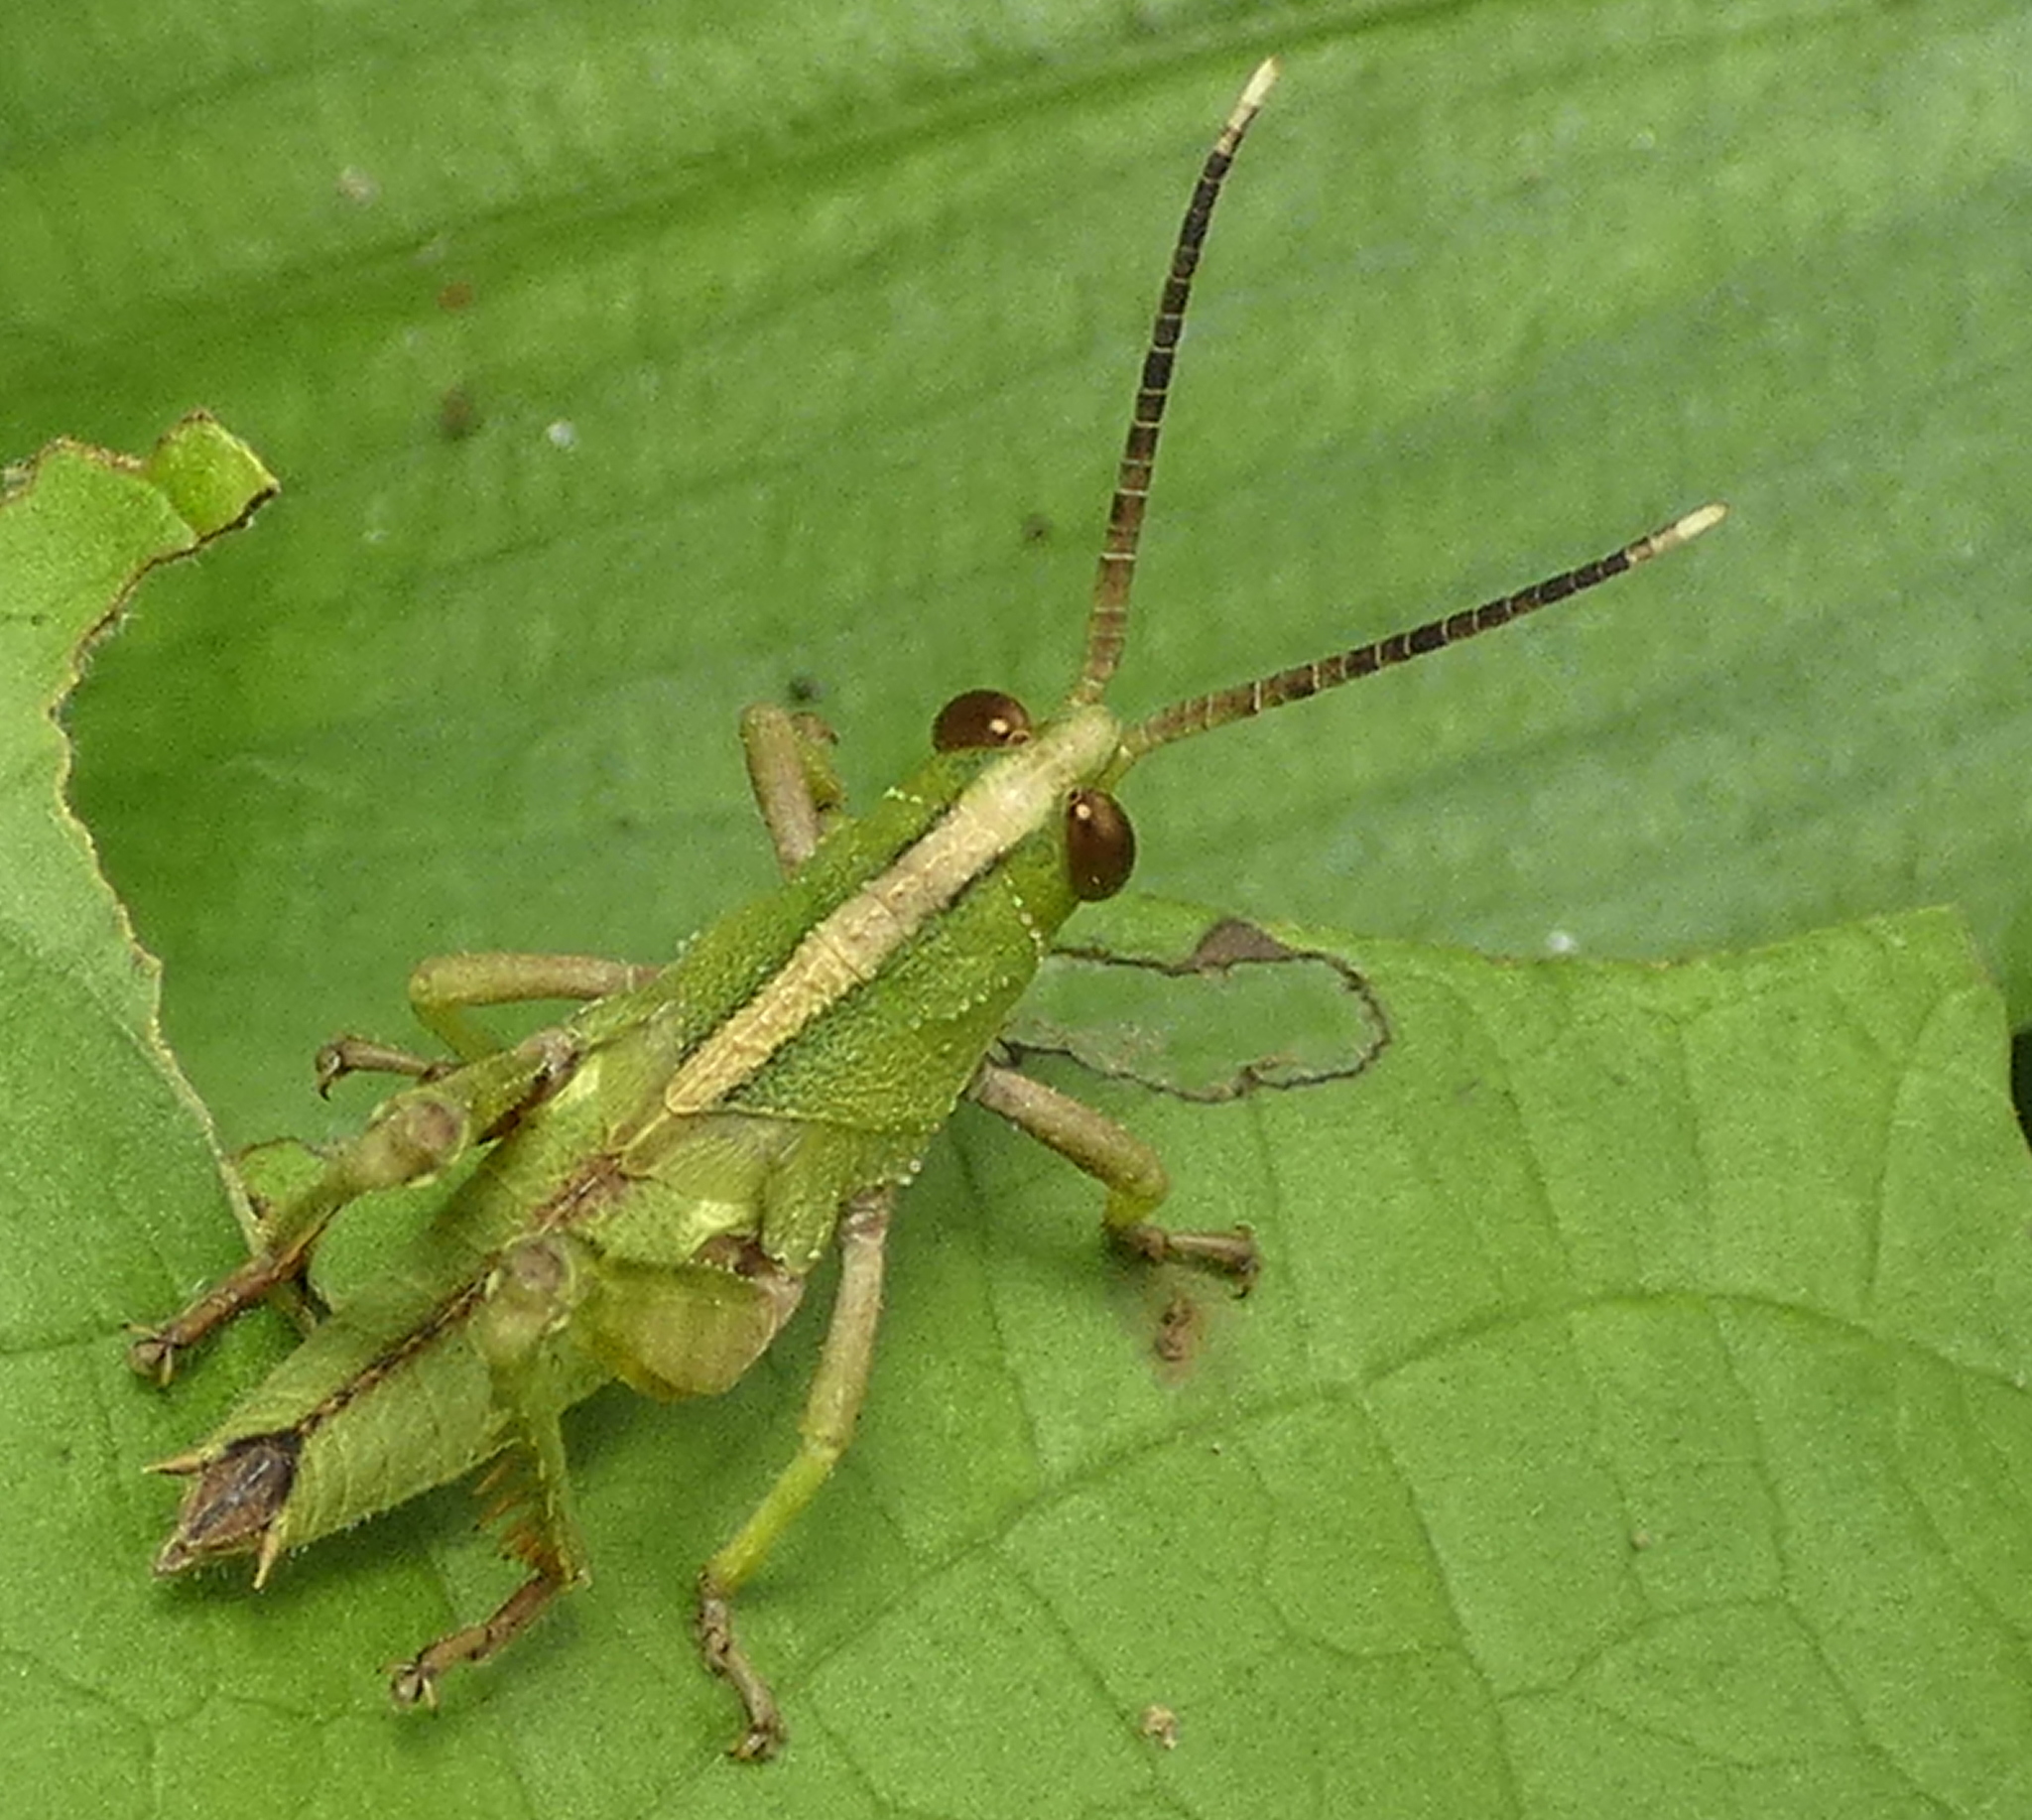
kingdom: Animalia
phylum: Arthropoda
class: Insecta
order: Orthoptera
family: Romaleidae
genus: Agriacris
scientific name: Agriacris auripennis
